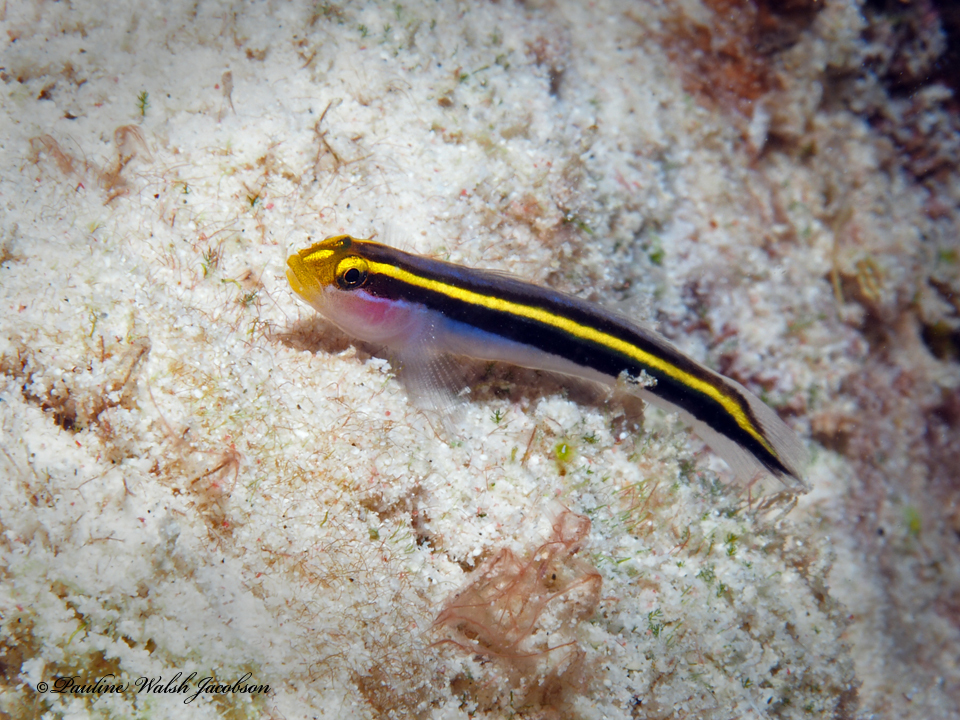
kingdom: Animalia
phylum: Chordata
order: Perciformes
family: Gobiidae
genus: Elacatinus
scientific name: Elacatinus randalli
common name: Yellownose goby
